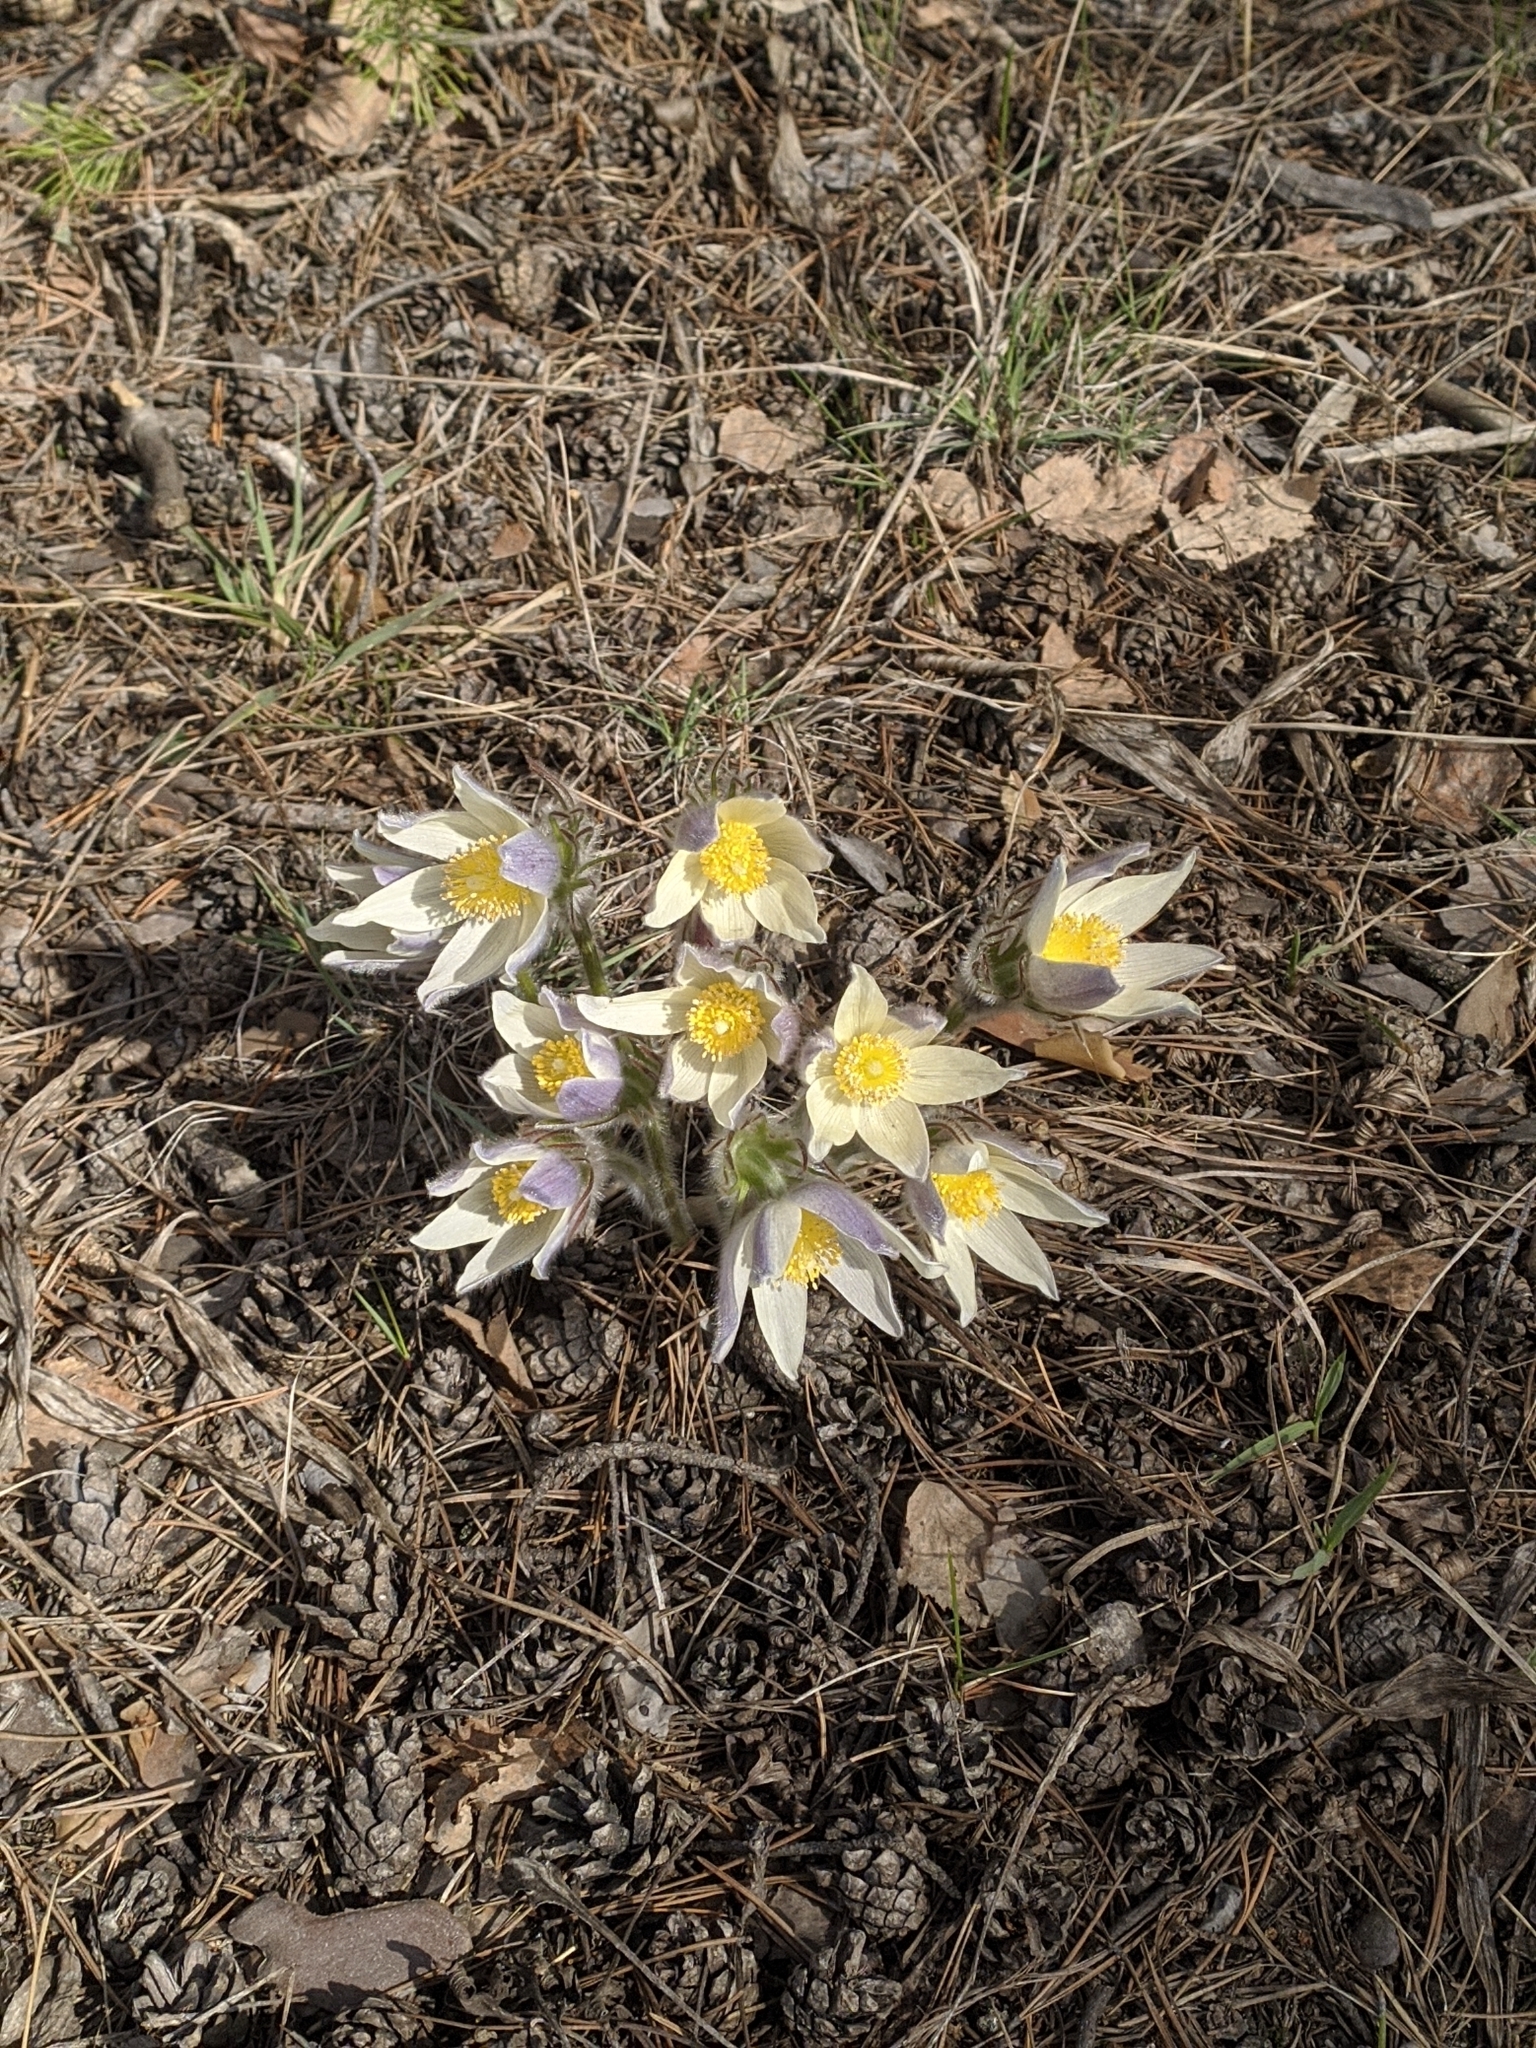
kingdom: Plantae
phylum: Tracheophyta
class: Magnoliopsida
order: Ranunculales
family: Ranunculaceae
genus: Pulsatilla
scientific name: Pulsatilla patens
